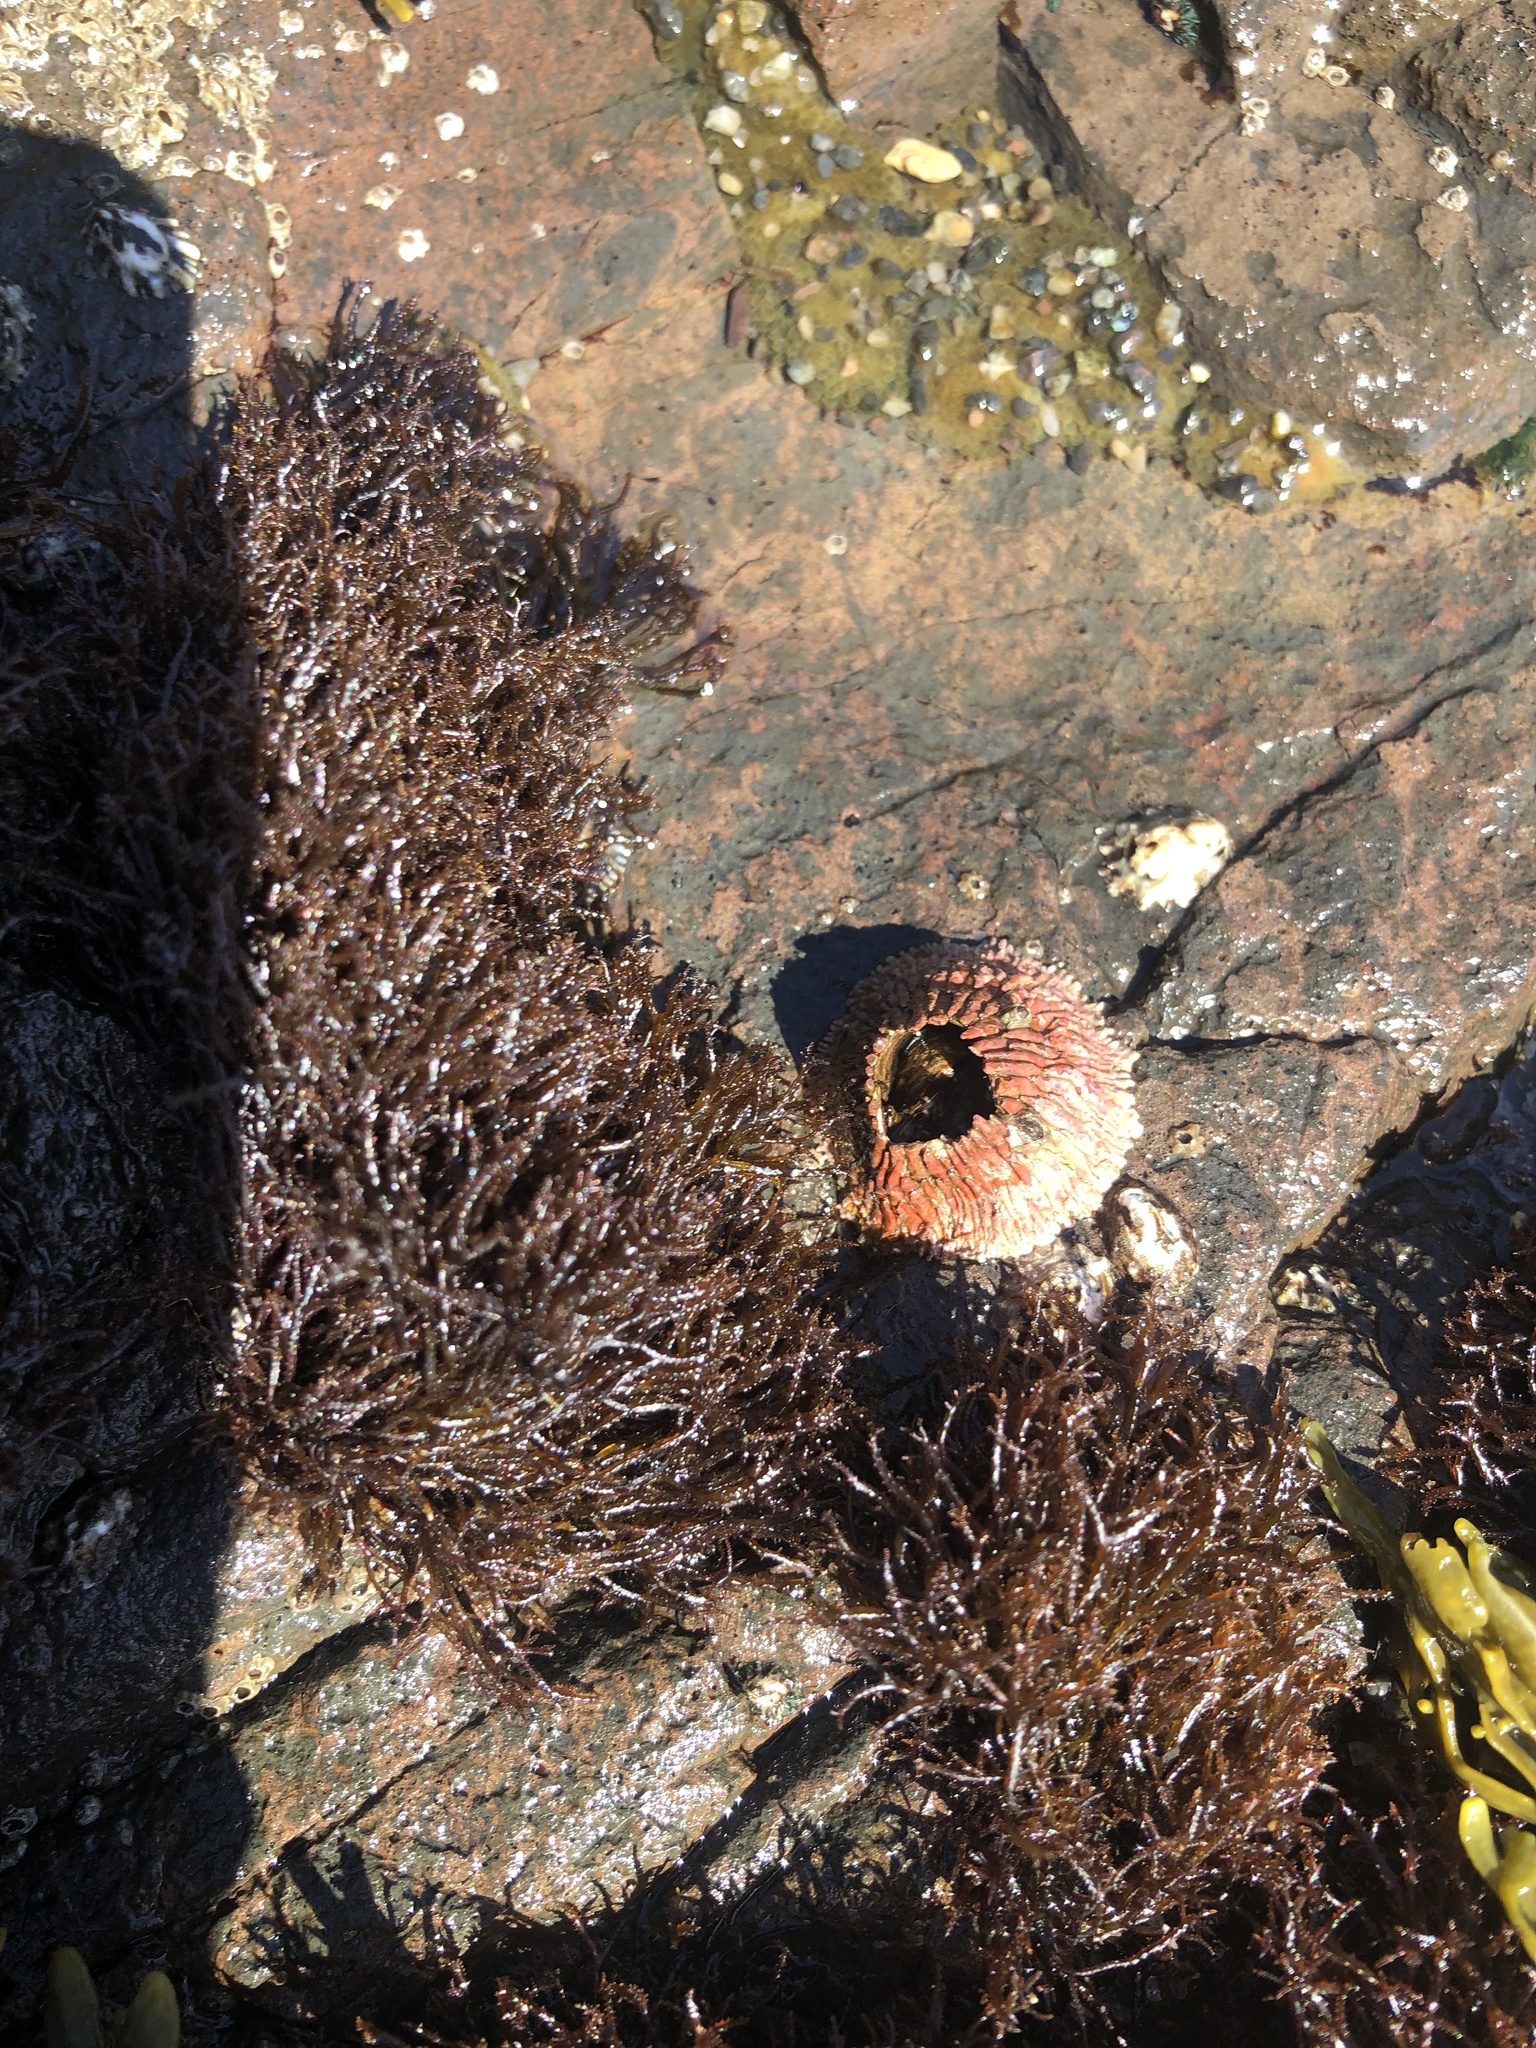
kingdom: Animalia
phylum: Arthropoda
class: Maxillopoda
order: Sessilia
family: Tetraclitidae
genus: Tetraclita
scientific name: Tetraclita rubescens
